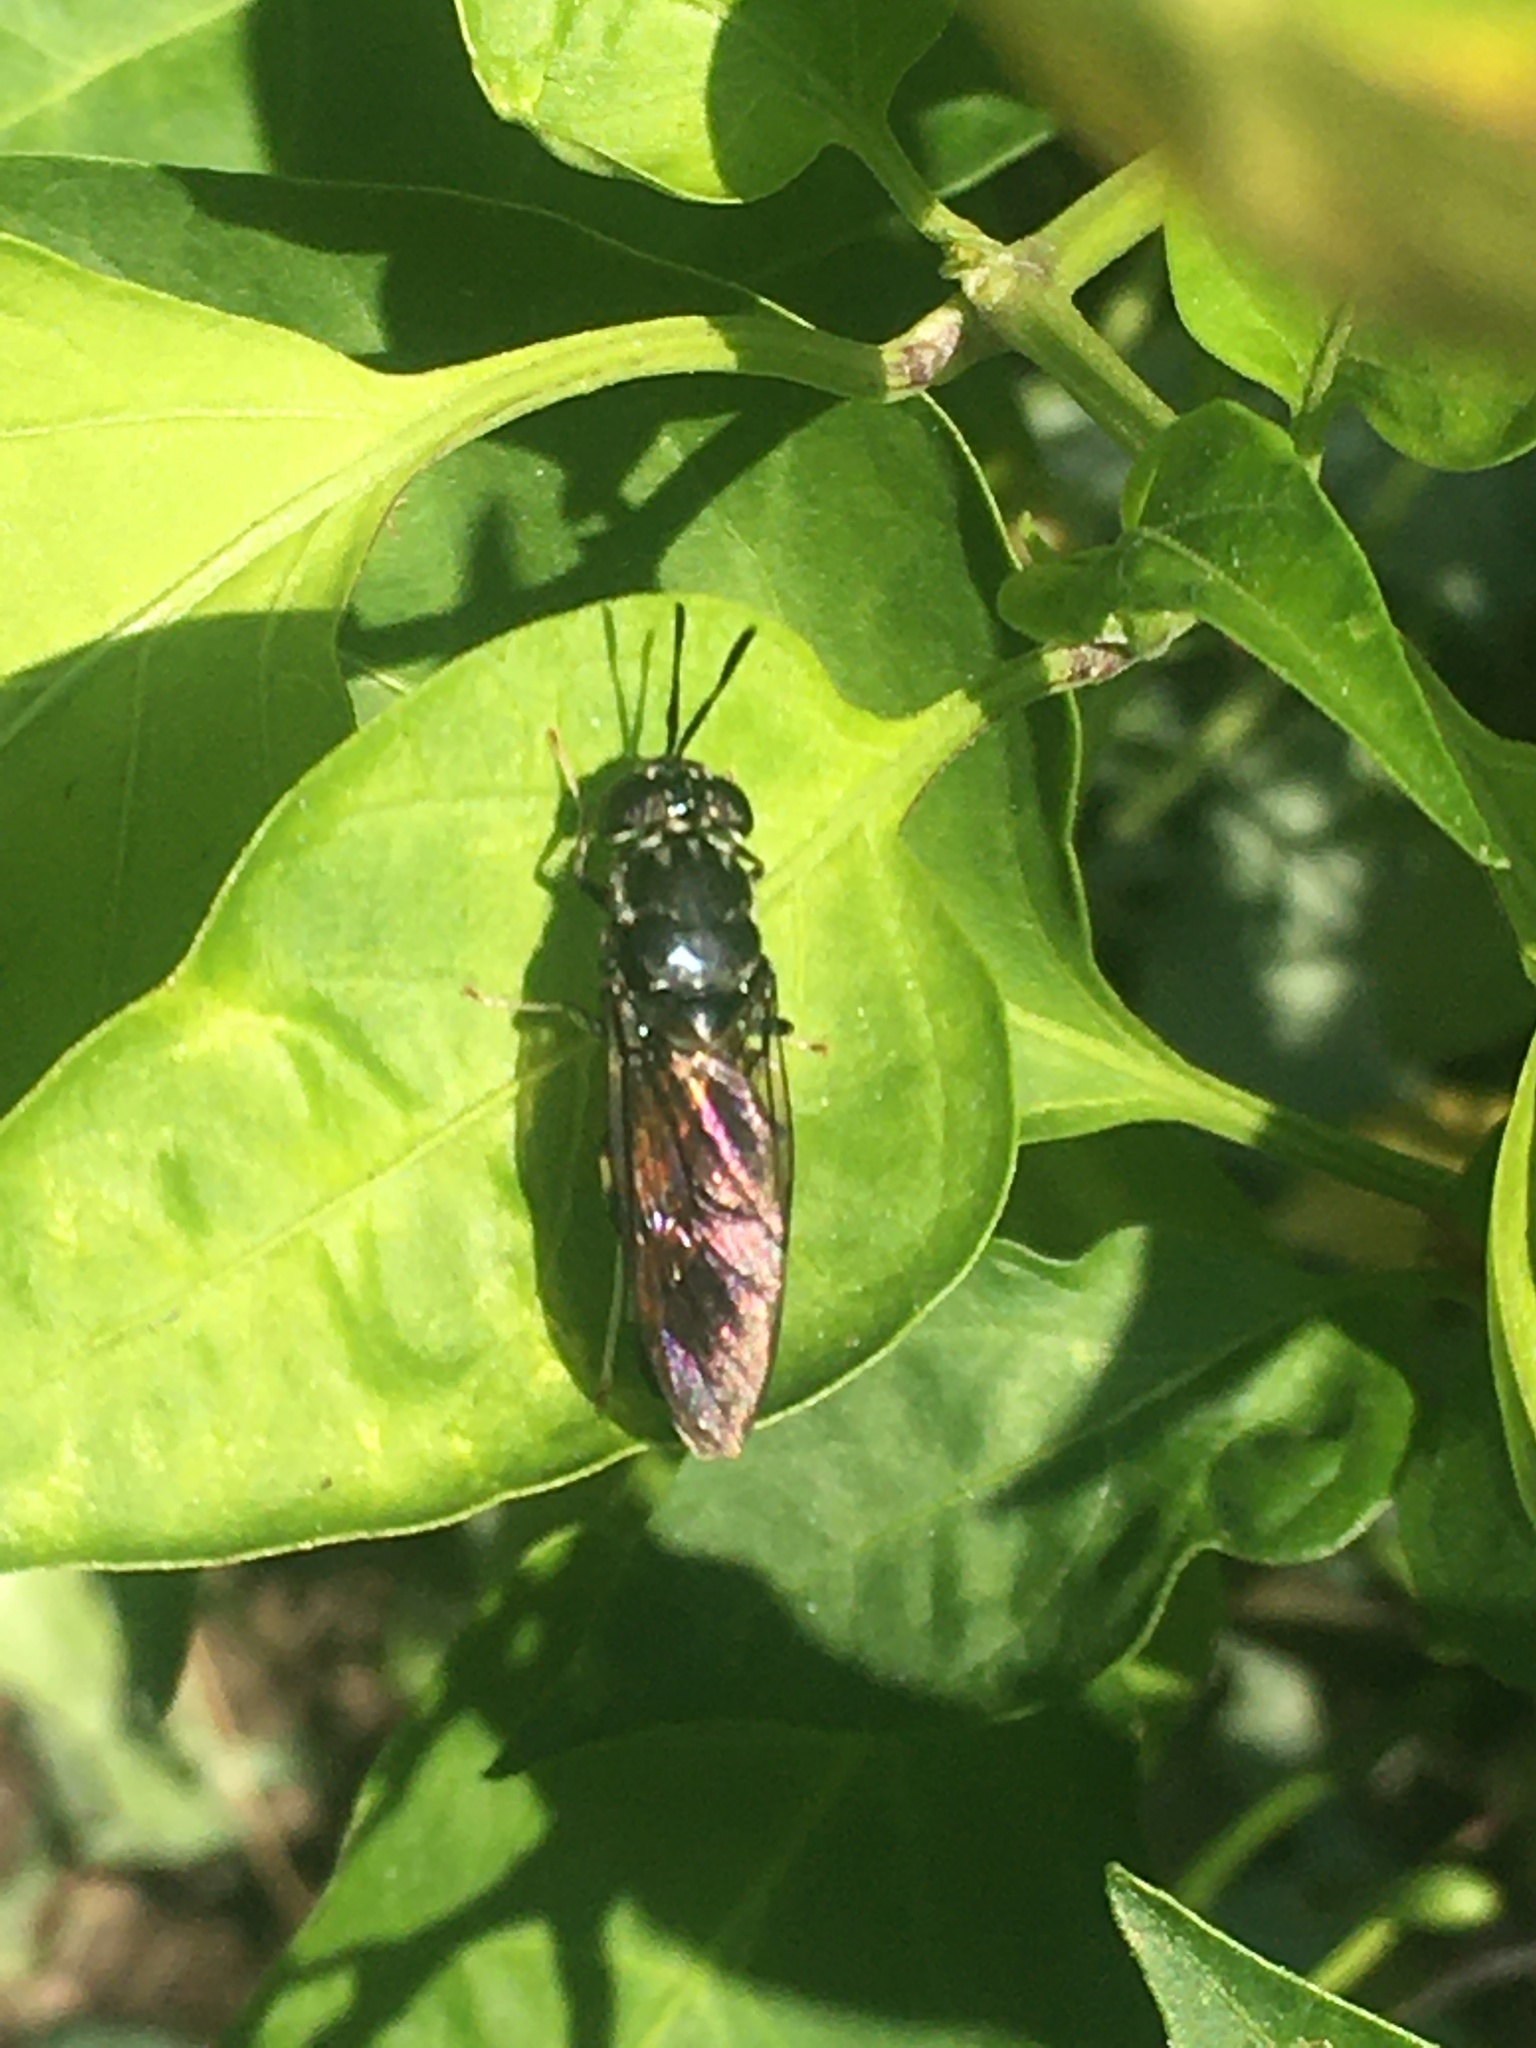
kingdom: Animalia
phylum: Arthropoda
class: Insecta
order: Diptera
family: Stratiomyidae
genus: Hermetia
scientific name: Hermetia illucens
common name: Black soldier fly
